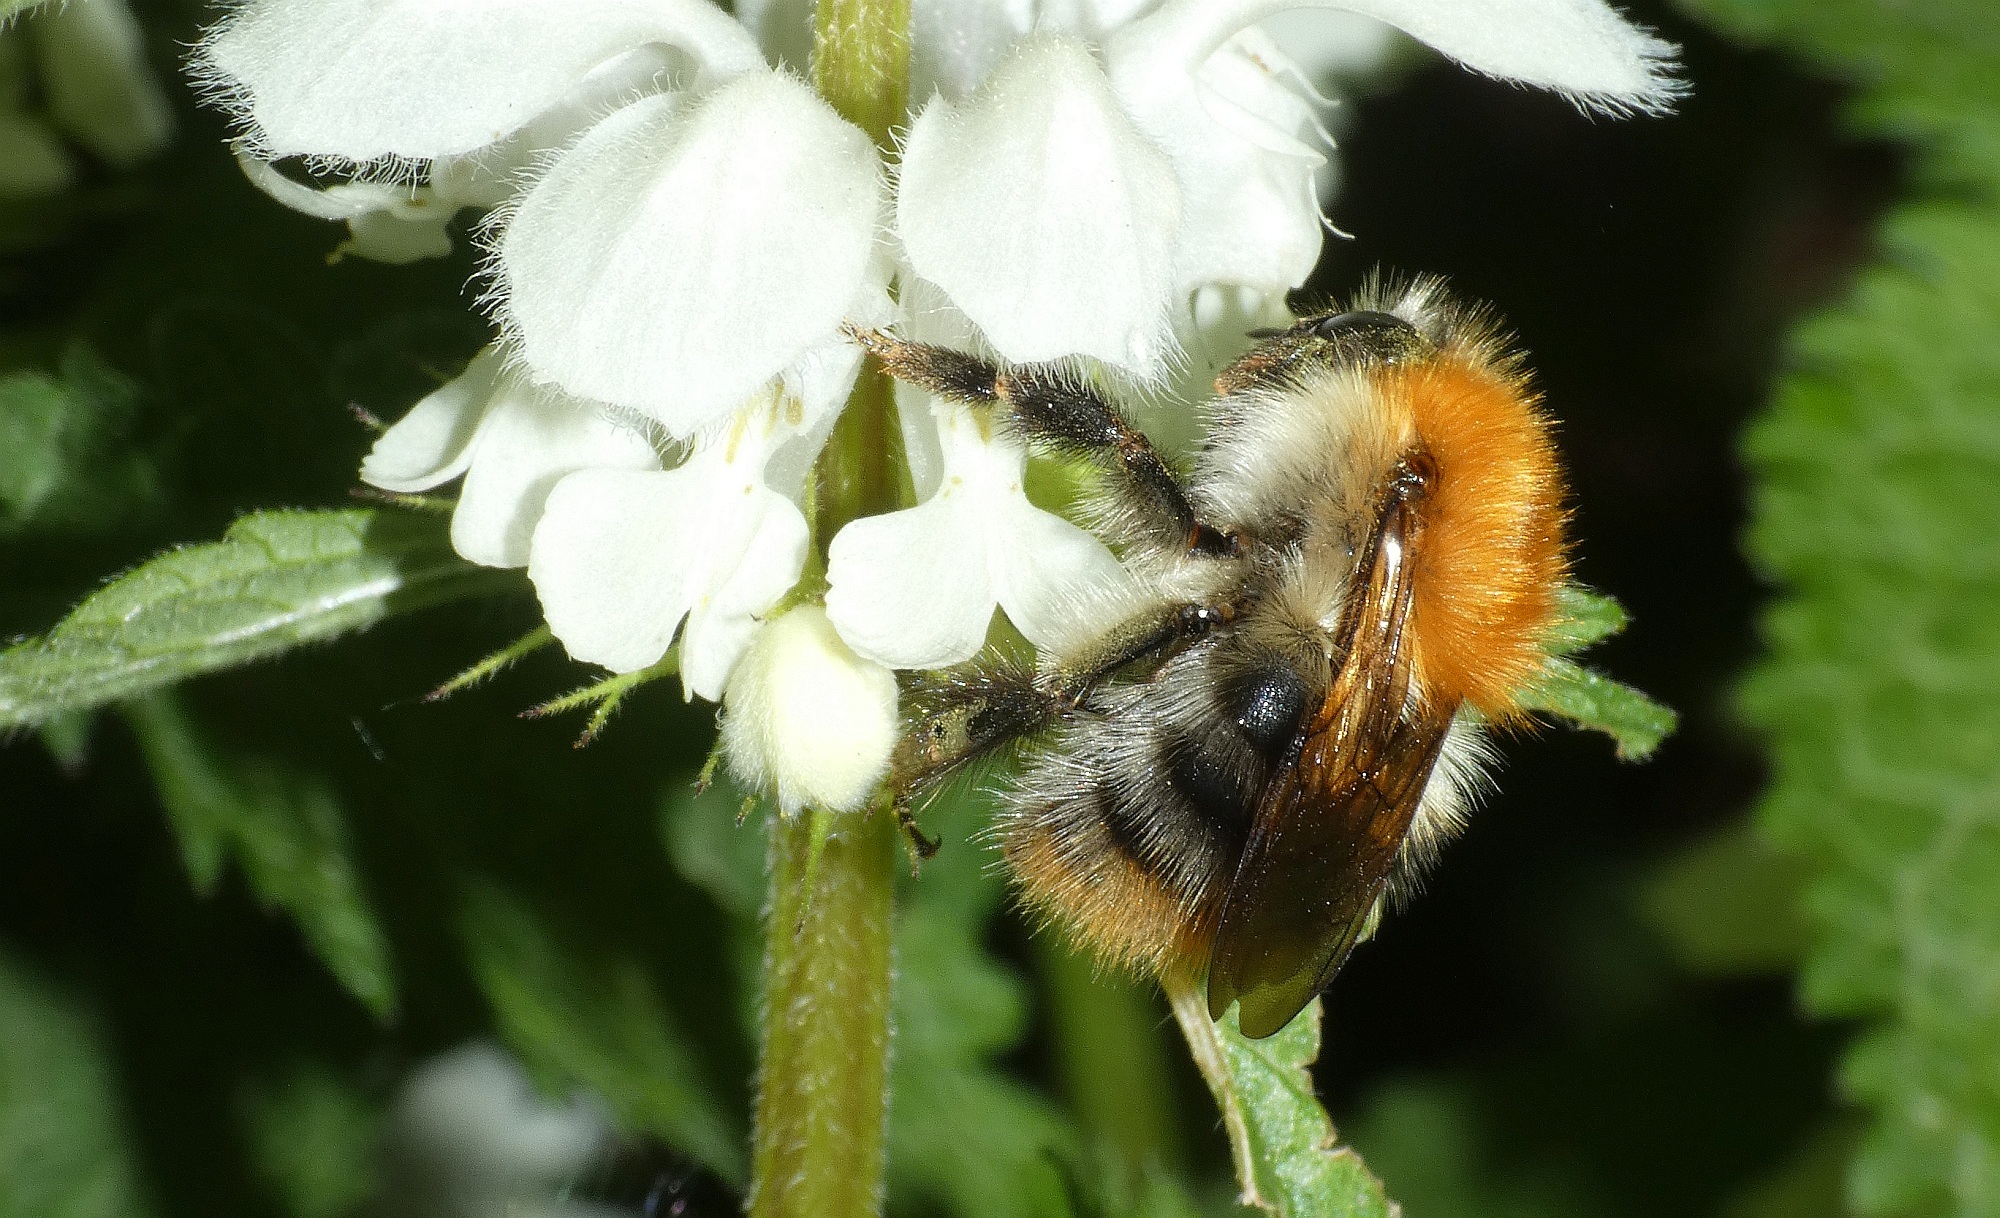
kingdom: Animalia
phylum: Arthropoda
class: Insecta
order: Hymenoptera
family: Apidae
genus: Bombus
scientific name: Bombus pascuorum
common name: Common carder bee
